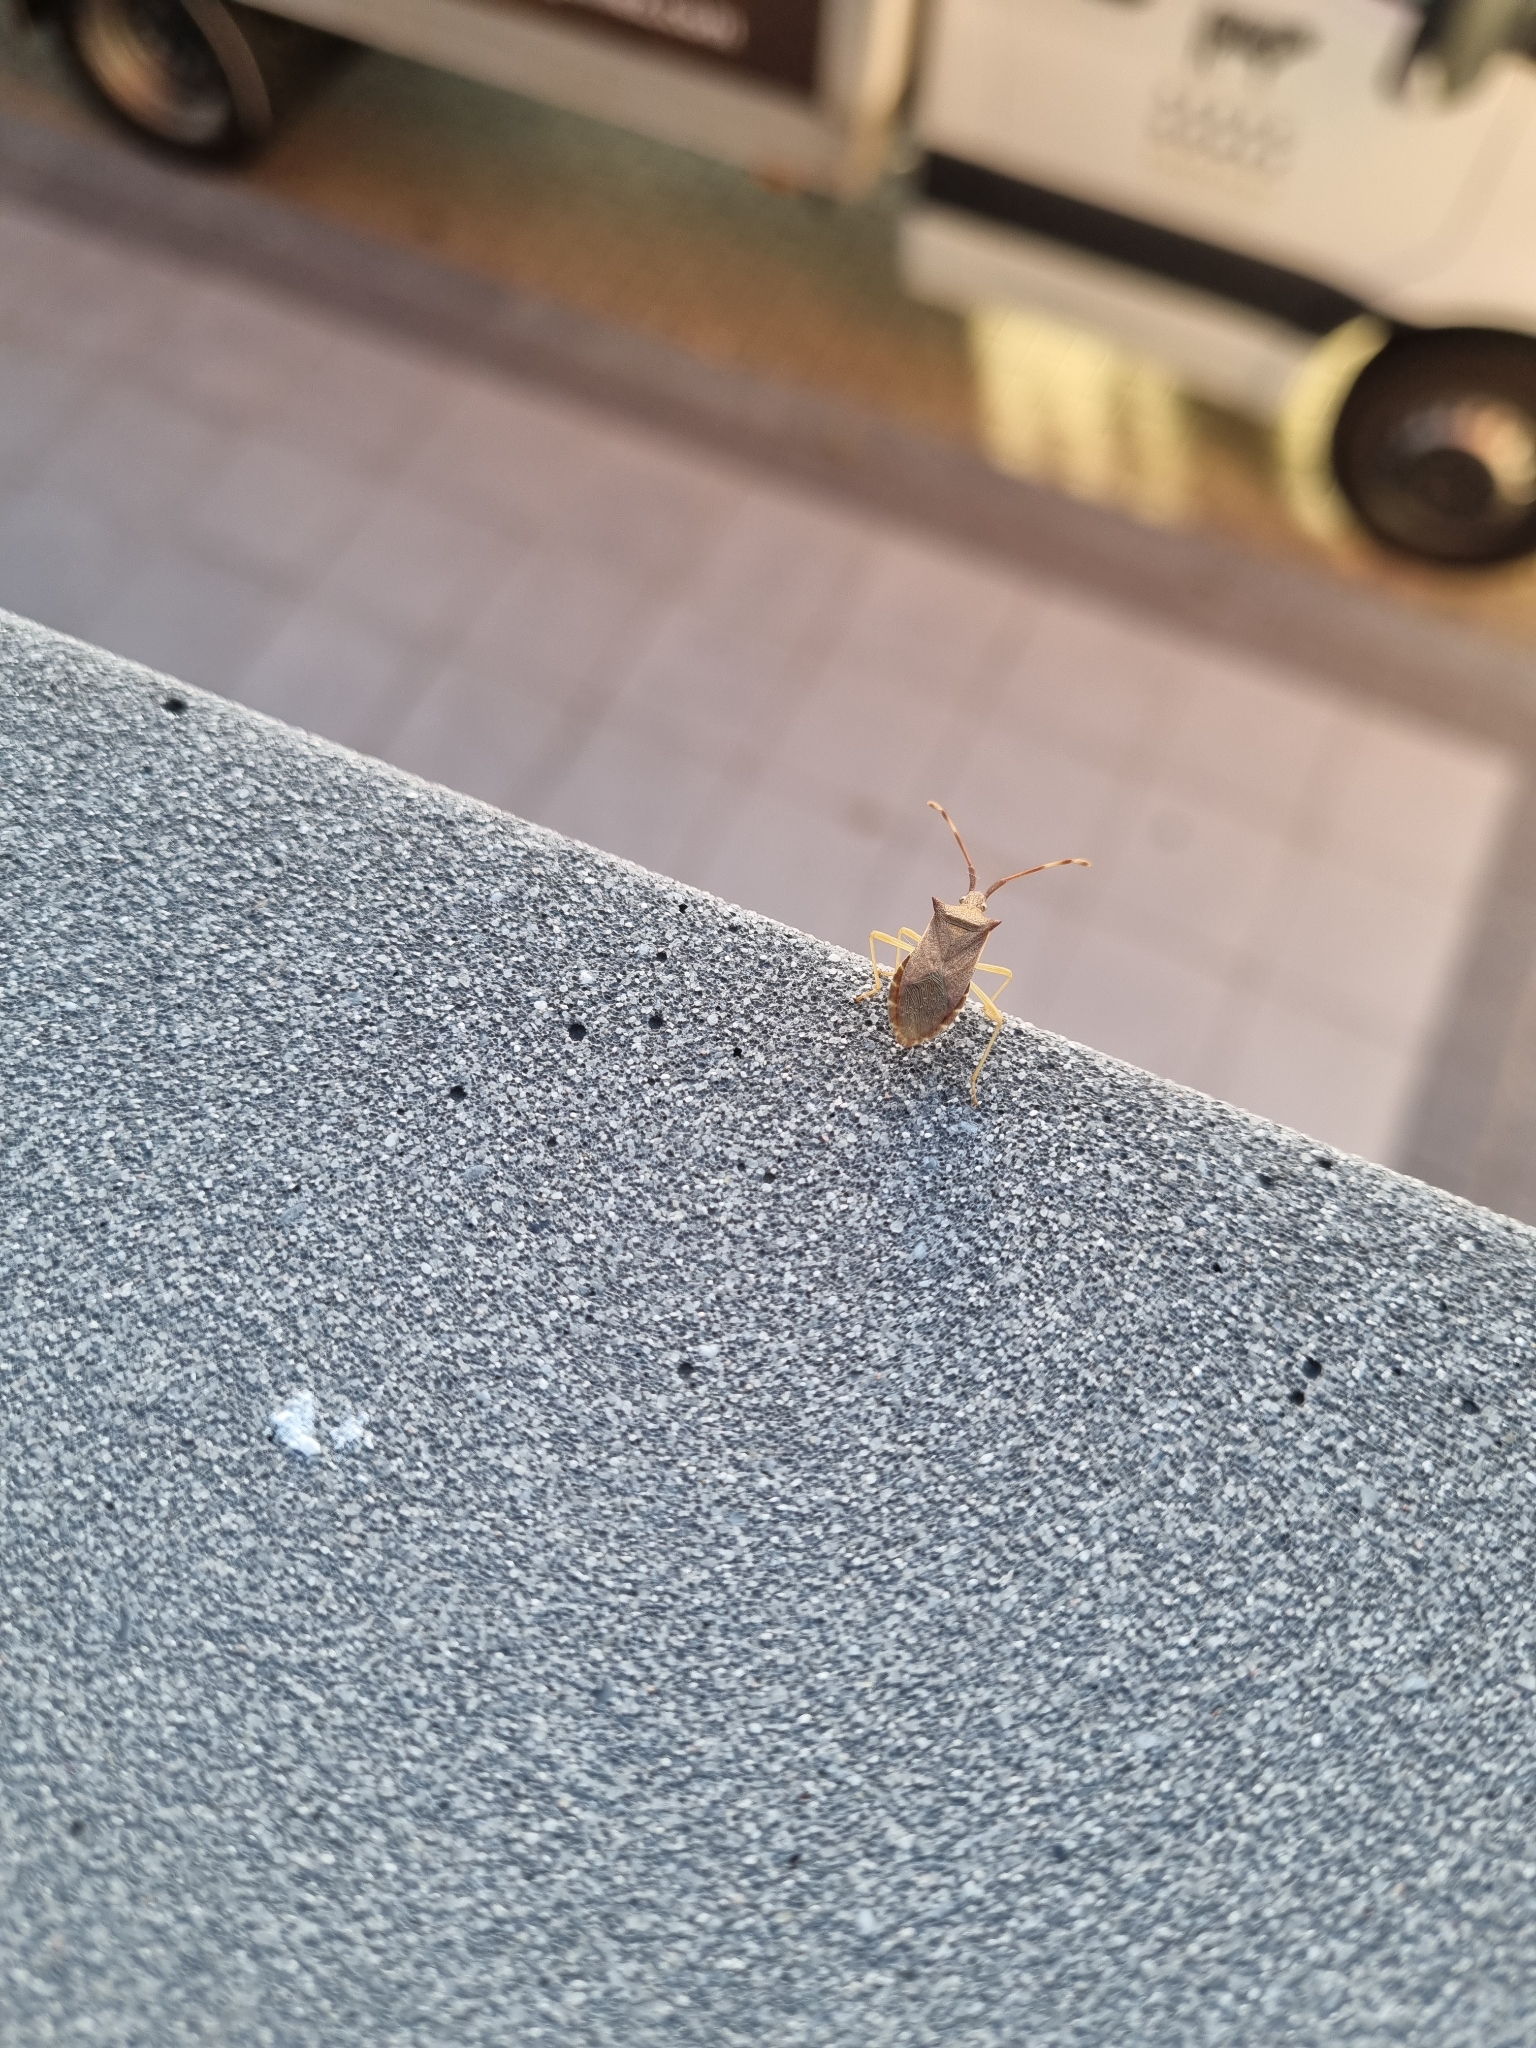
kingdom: Animalia
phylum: Arthropoda
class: Insecta
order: Hemiptera
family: Coreidae
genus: Gonocerus
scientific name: Gonocerus acuteangulatus
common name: Box bug
